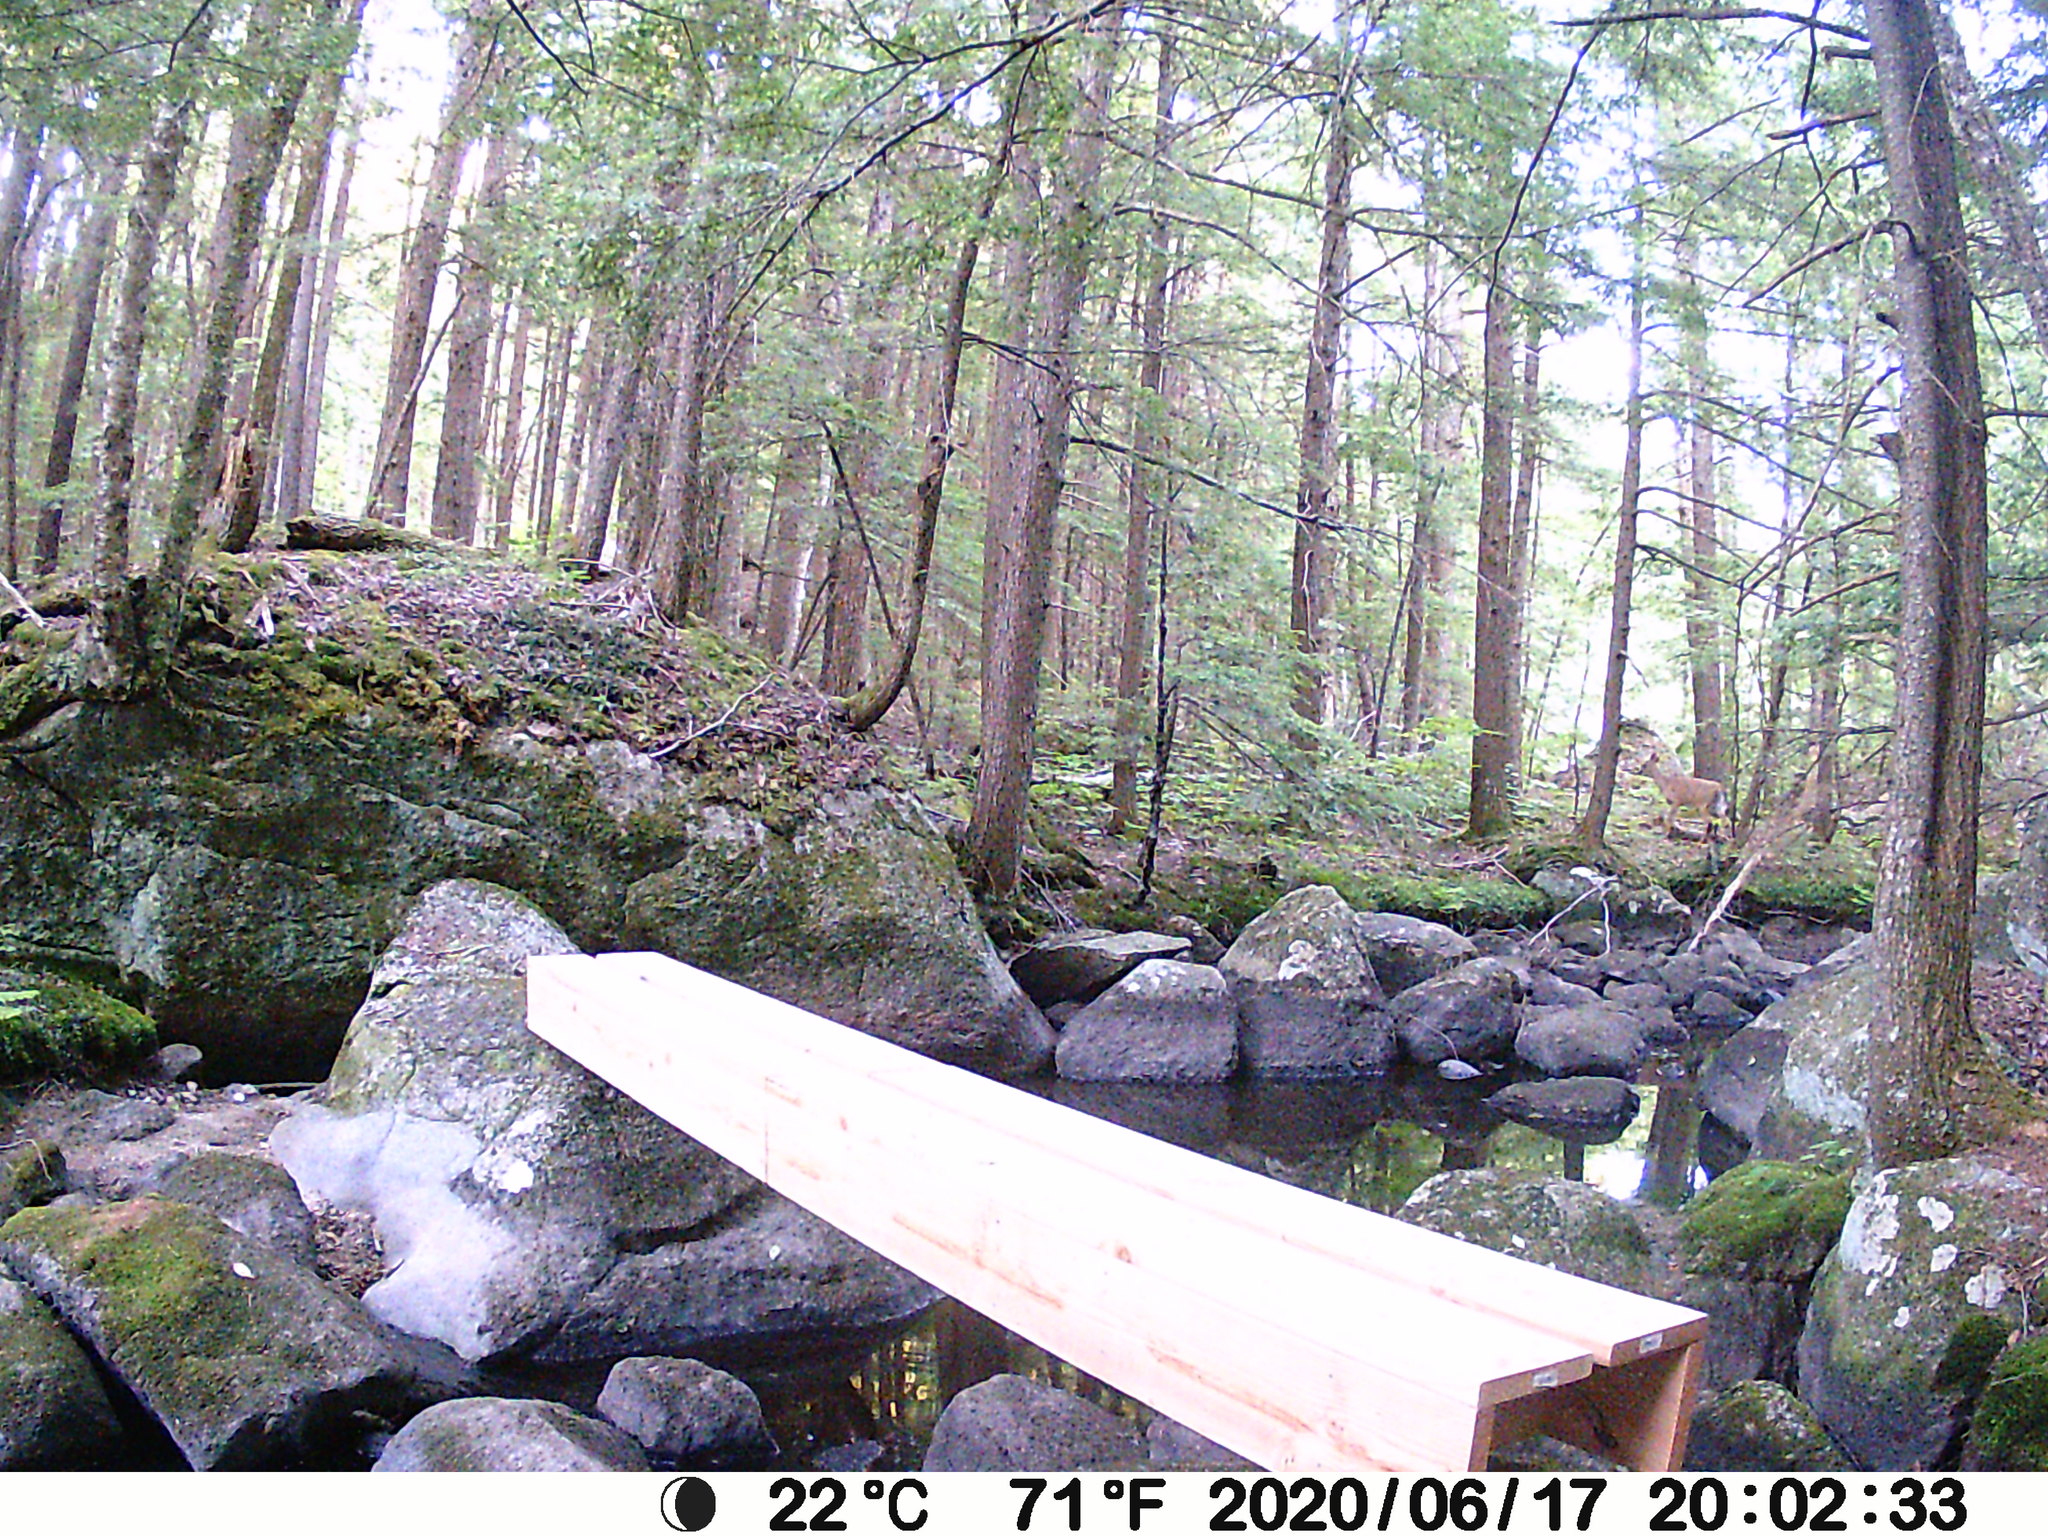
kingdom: Animalia
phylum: Chordata
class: Mammalia
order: Artiodactyla
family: Cervidae
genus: Odocoileus
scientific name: Odocoileus virginianus
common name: White-tailed deer
